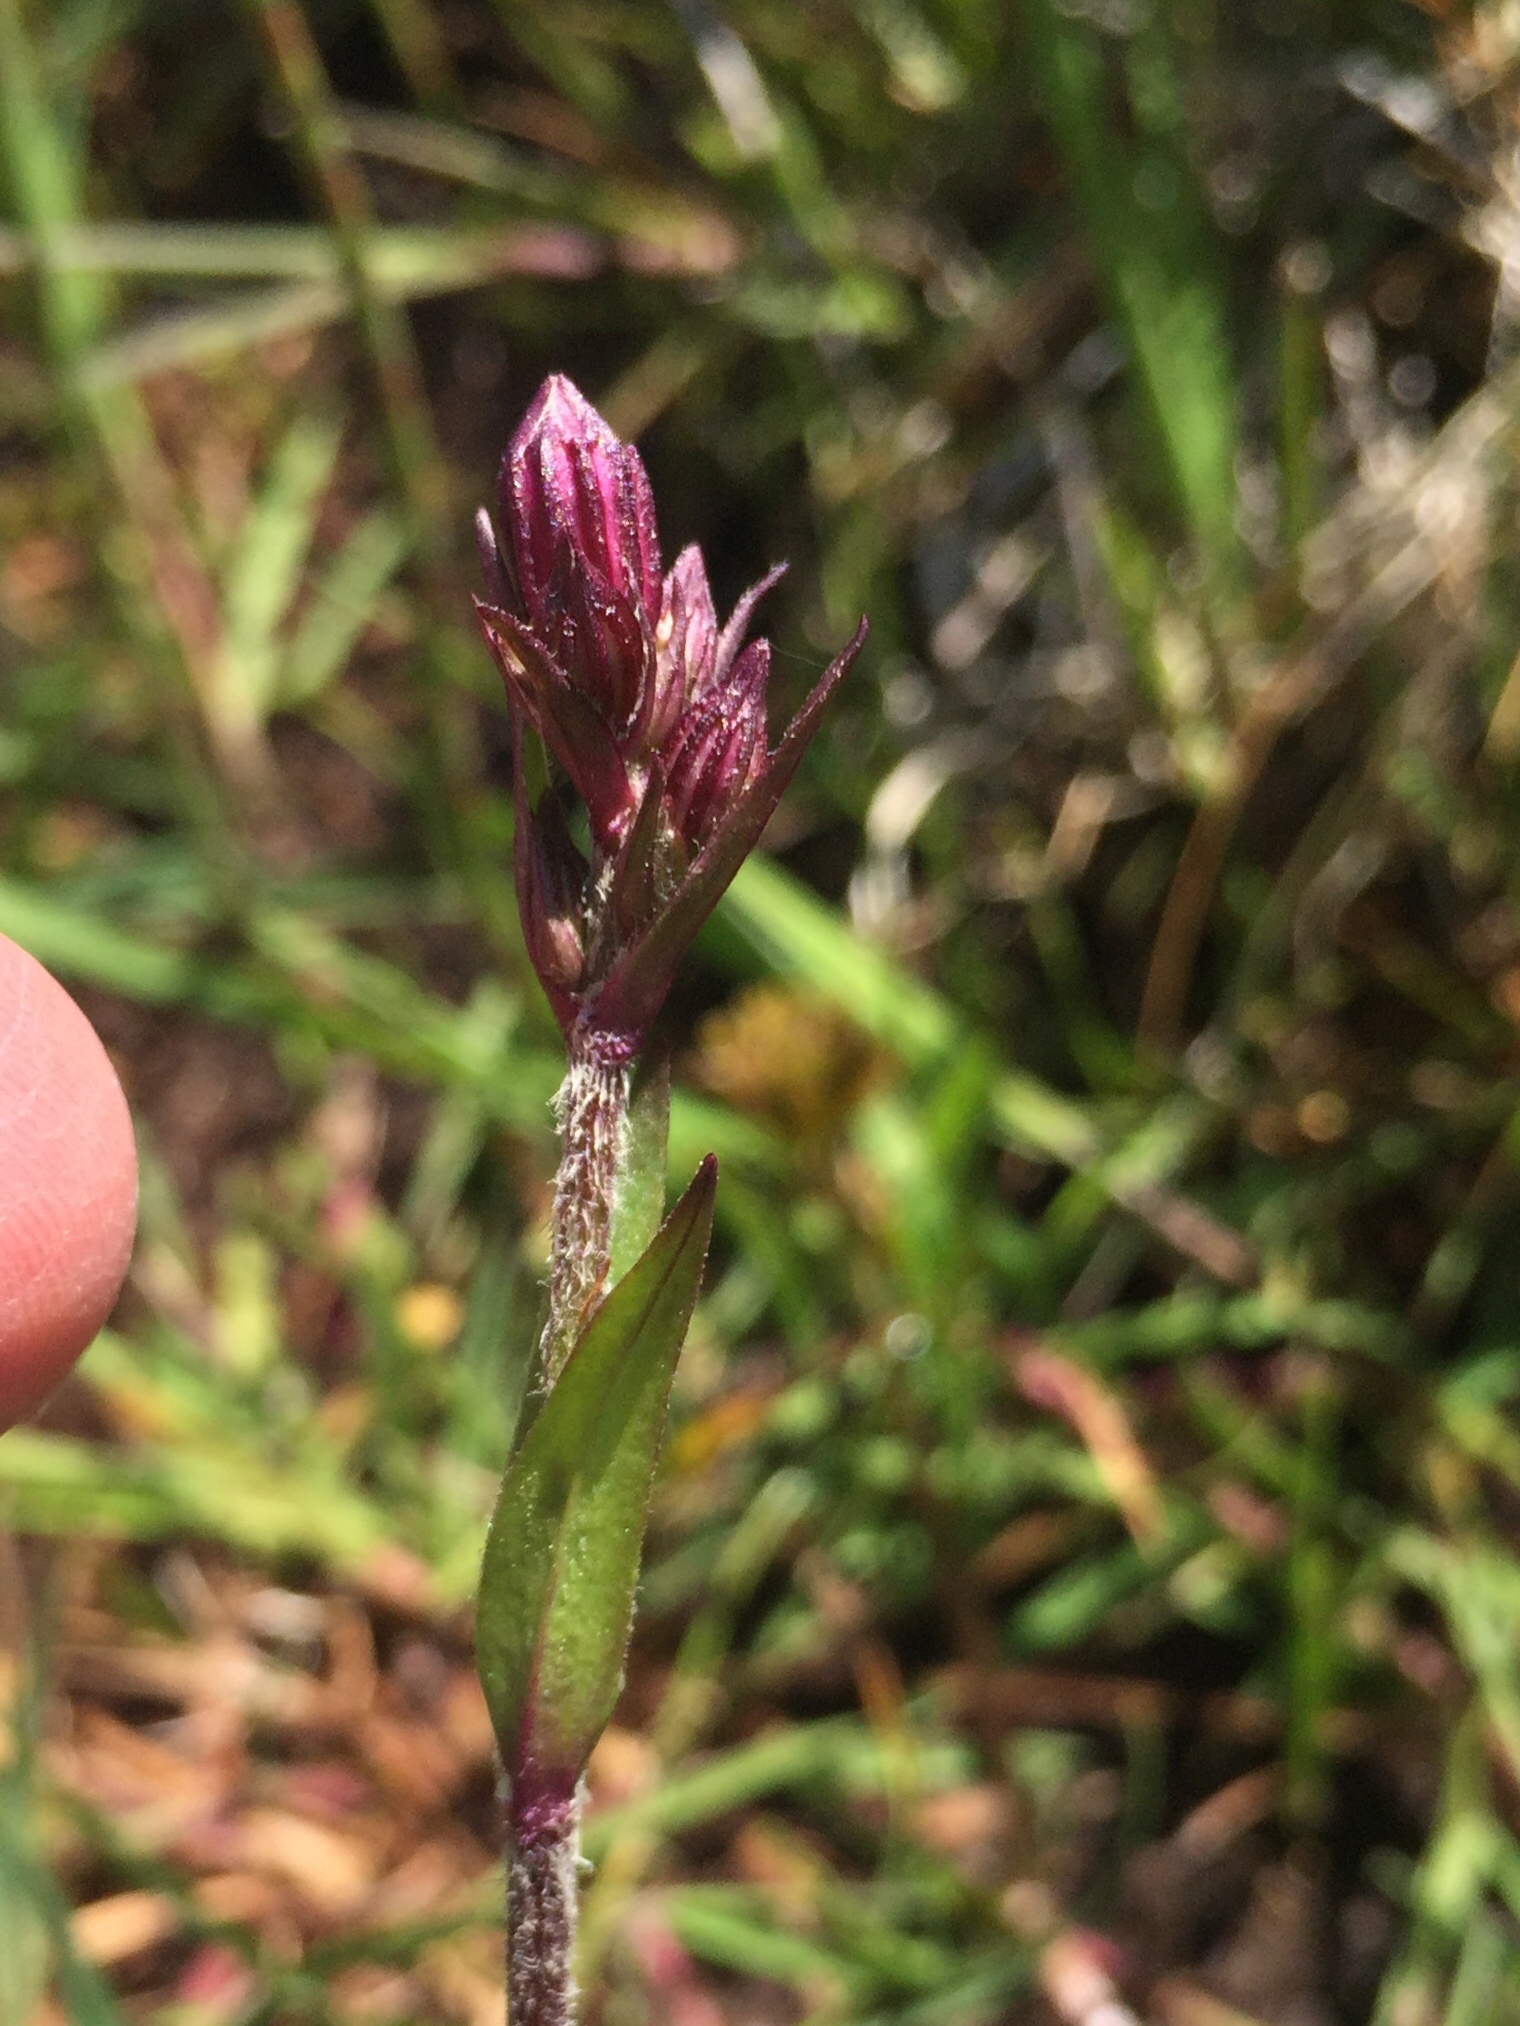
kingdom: Plantae
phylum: Tracheophyta
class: Magnoliopsida
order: Caryophyllales
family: Caryophyllaceae
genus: Silene
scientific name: Silene flos-cuculi
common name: Ragged-robin
